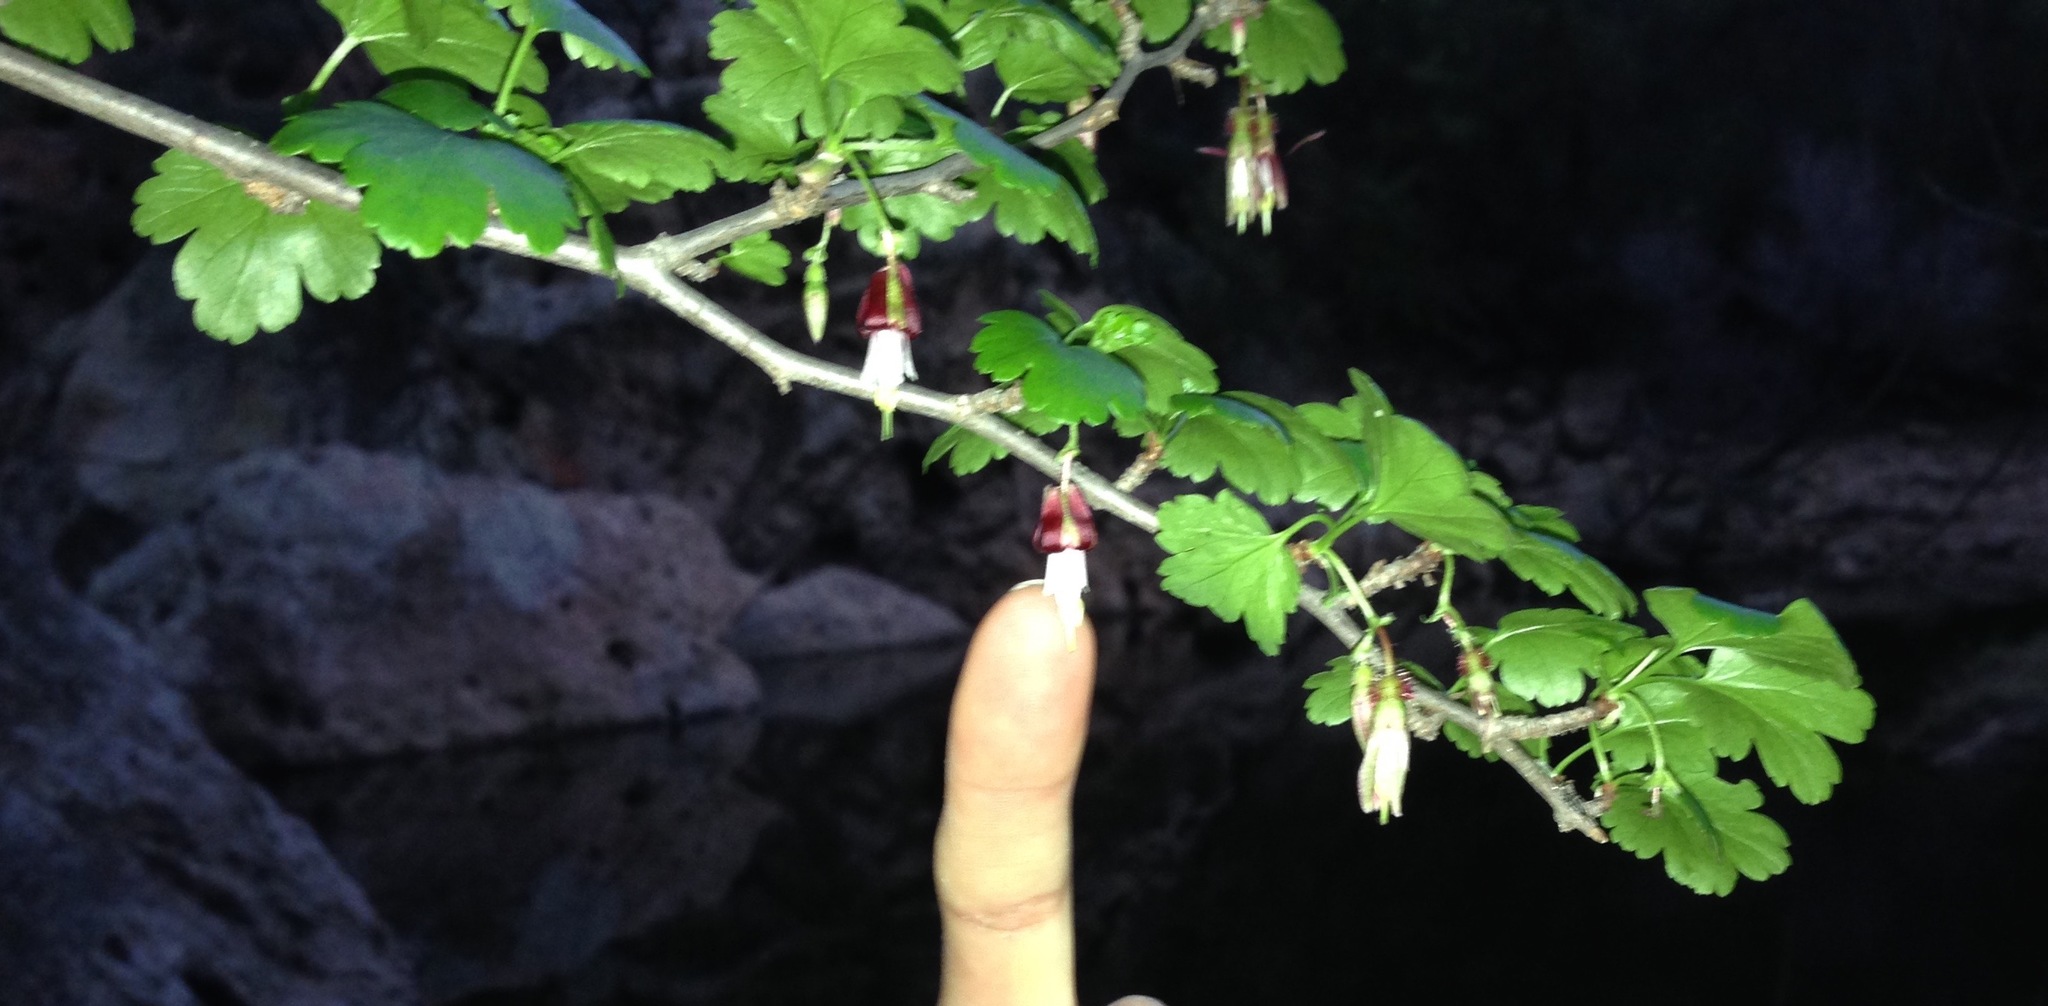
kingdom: Plantae
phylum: Tracheophyta
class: Magnoliopsida
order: Saxifragales
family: Grossulariaceae
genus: Ribes
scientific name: Ribes californicum
